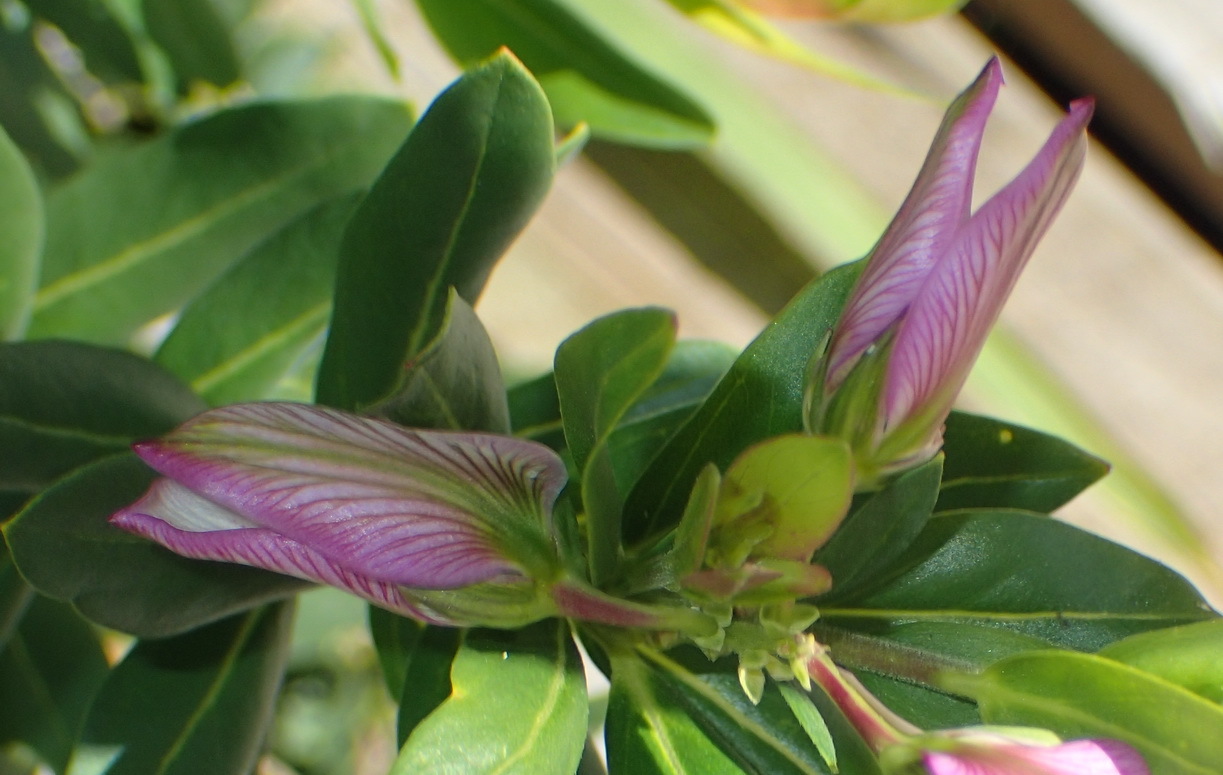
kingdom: Plantae
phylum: Tracheophyta
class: Magnoliopsida
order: Fabales
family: Polygalaceae
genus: Polygala
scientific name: Polygala myrtifolia
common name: Myrtle-leaf milkwort
